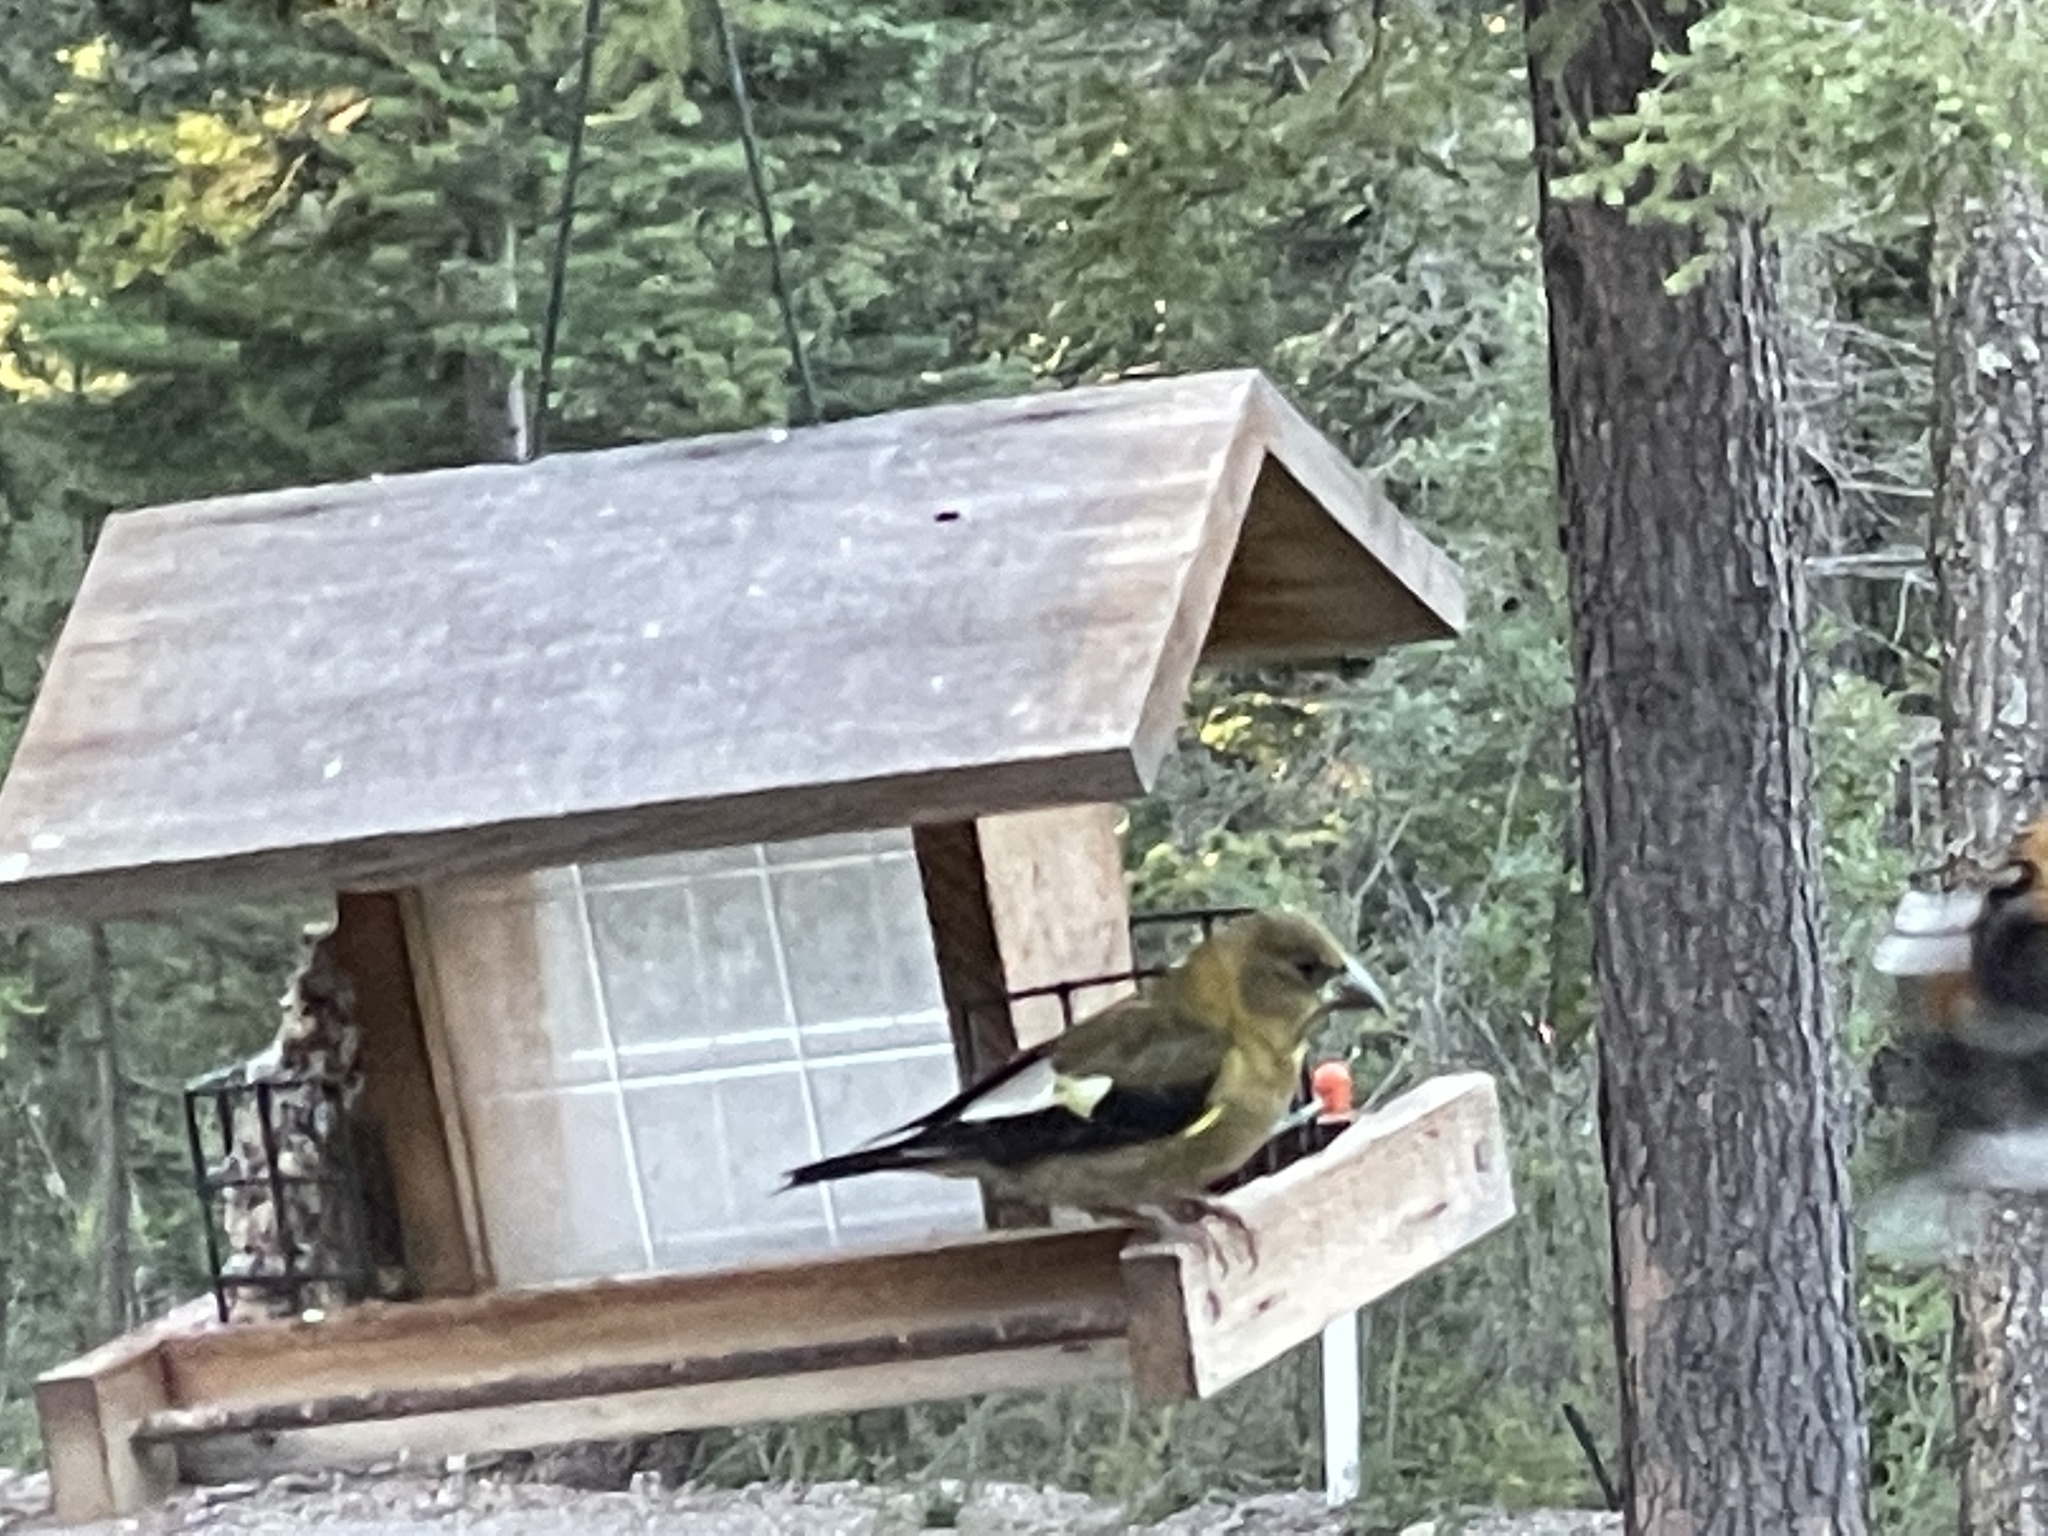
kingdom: Animalia
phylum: Chordata
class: Aves
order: Passeriformes
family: Fringillidae
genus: Hesperiphona
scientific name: Hesperiphona vespertina
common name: Evening grosbeak
